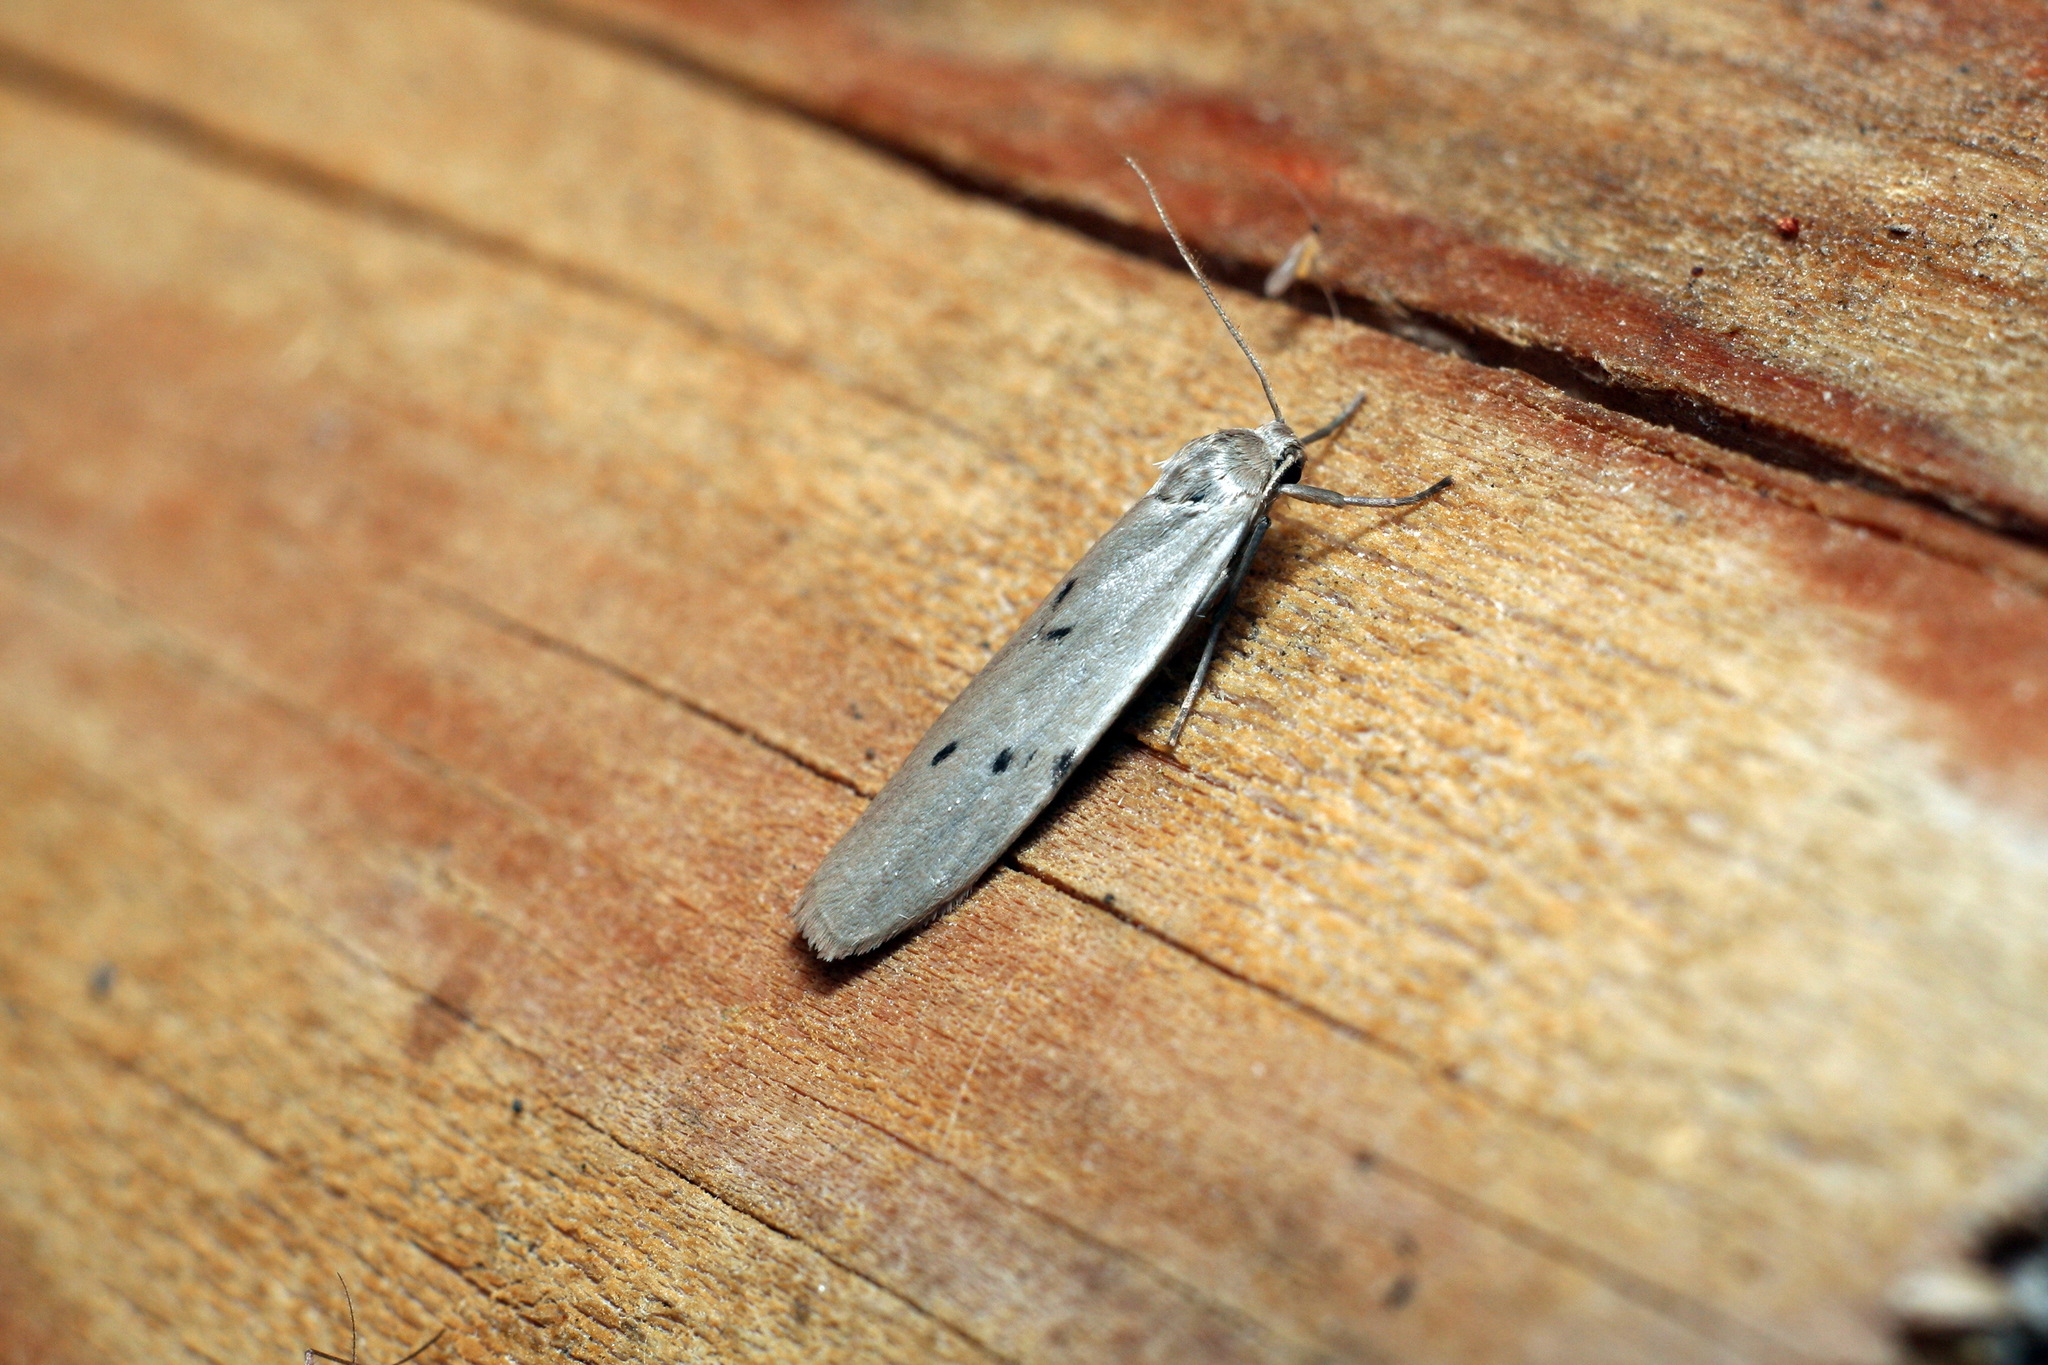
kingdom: Animalia
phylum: Arthropoda
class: Insecta
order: Lepidoptera
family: Erebidae
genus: Pelosia
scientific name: Pelosia muscerda
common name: Dotted footman
